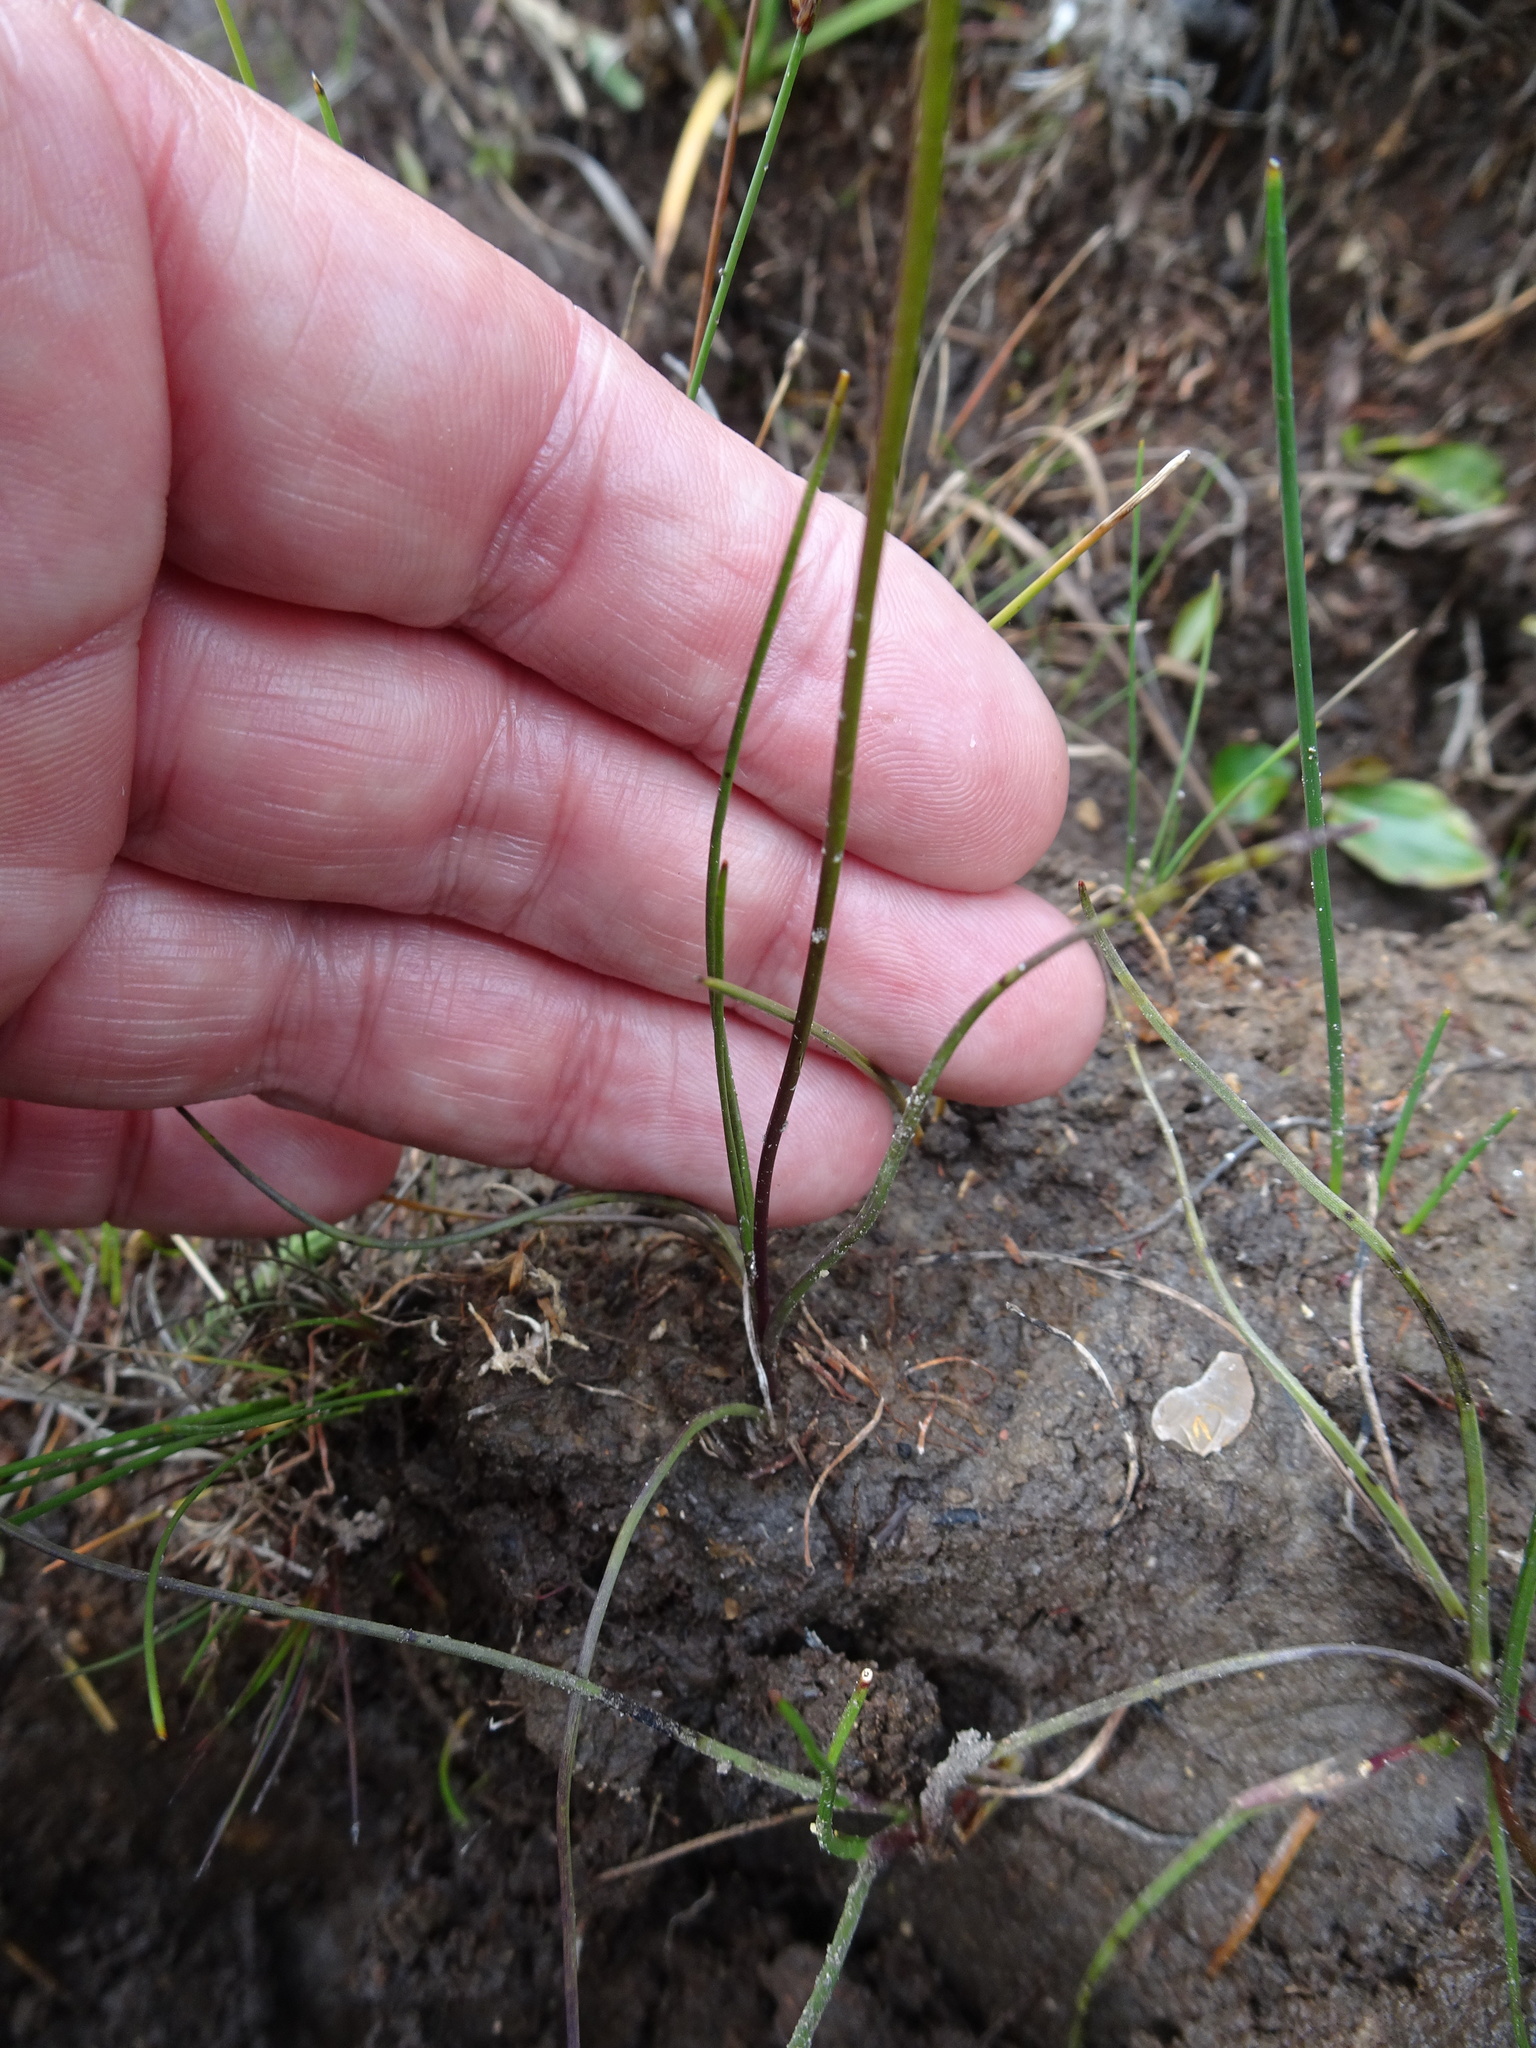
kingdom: Plantae
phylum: Tracheophyta
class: Liliopsida
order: Alismatales
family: Juncaginaceae
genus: Triglochin
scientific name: Triglochin palustris
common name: Marsh arrowgrass
